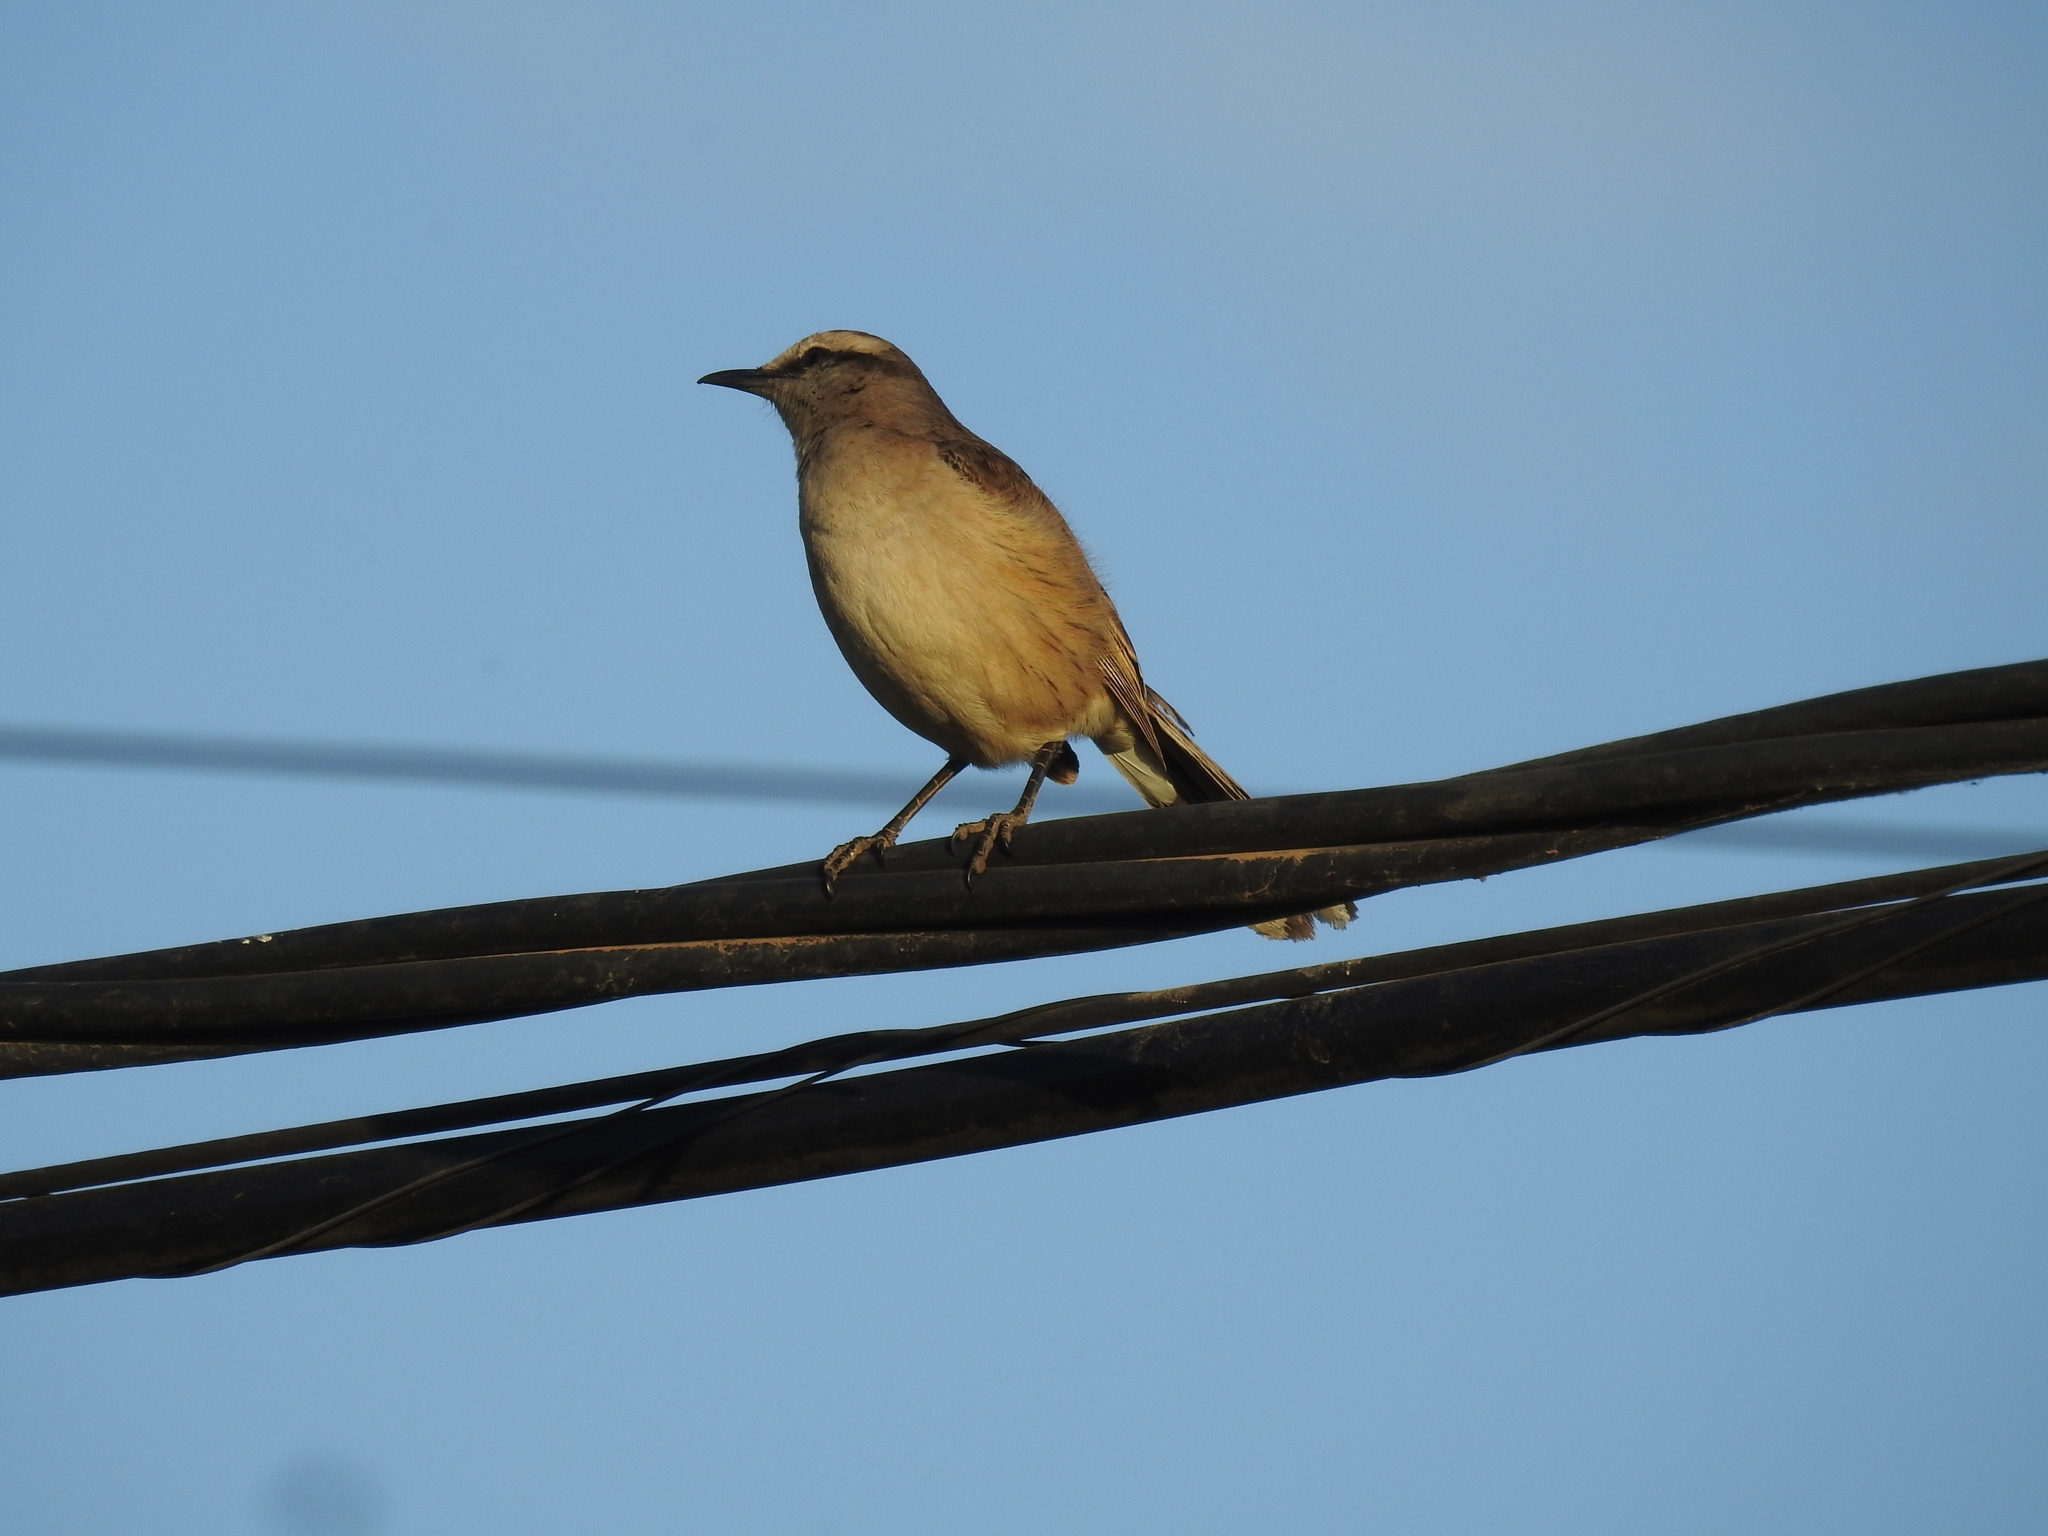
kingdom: Animalia
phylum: Chordata
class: Aves
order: Passeriformes
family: Mimidae
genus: Mimus
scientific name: Mimus saturninus
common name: Chalk-browed mockingbird
